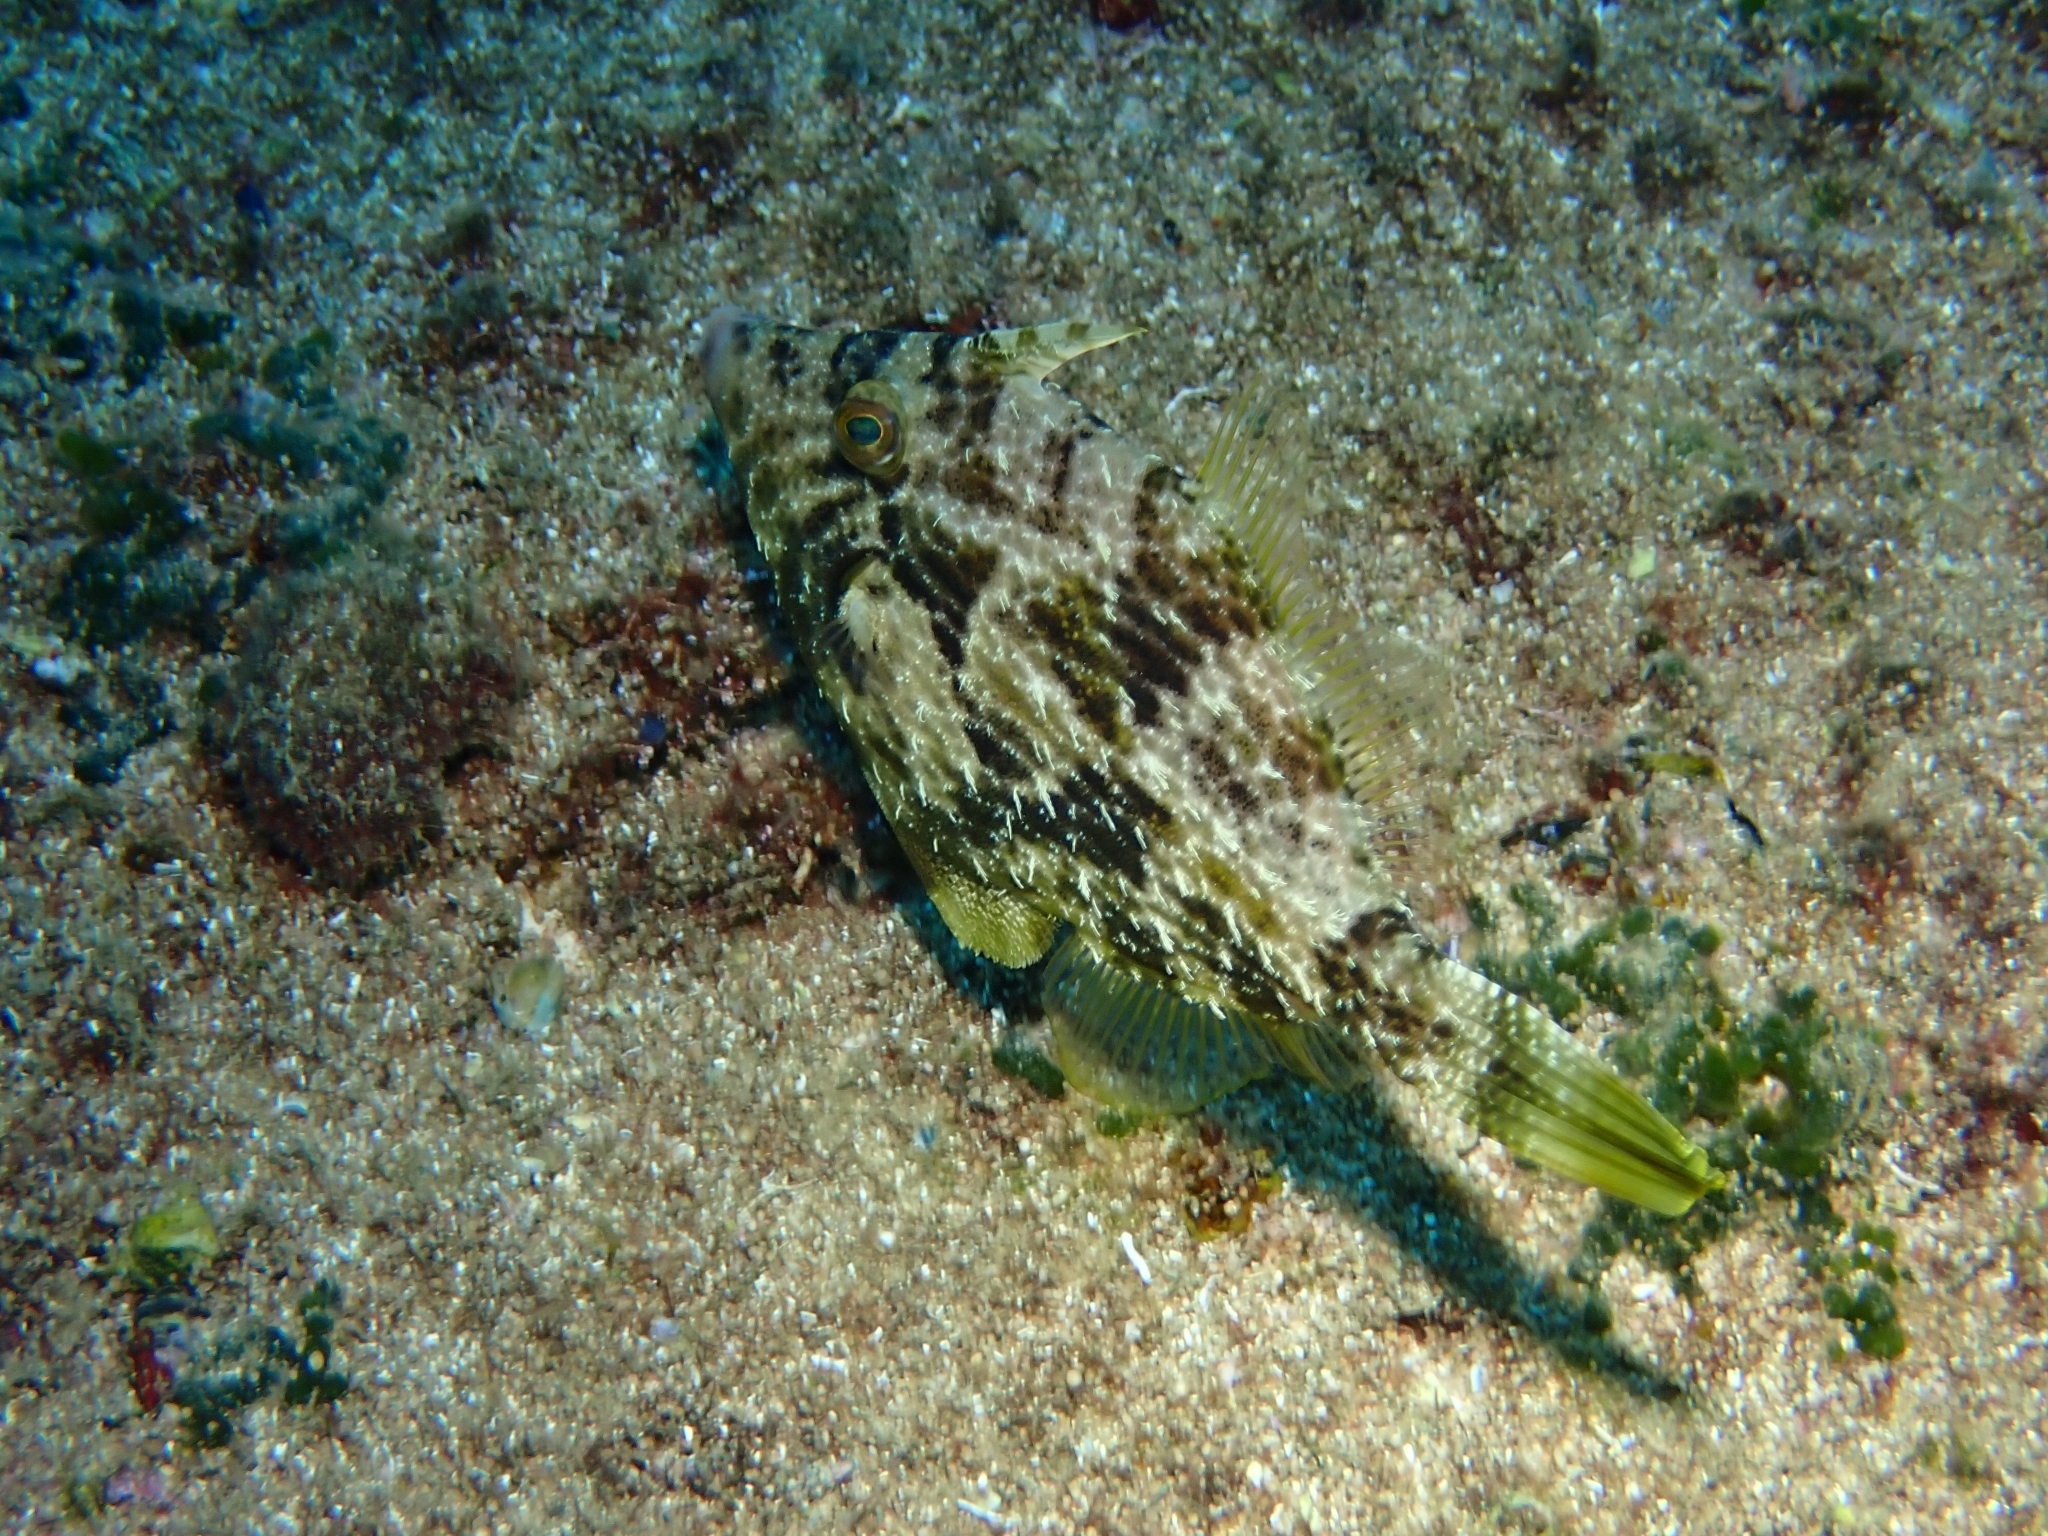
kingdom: Animalia
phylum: Chordata
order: Tetraodontiformes
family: Monacanthidae
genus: Stephanolepis
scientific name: Stephanolepis diaspros
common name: Reticulated leatherjacket
